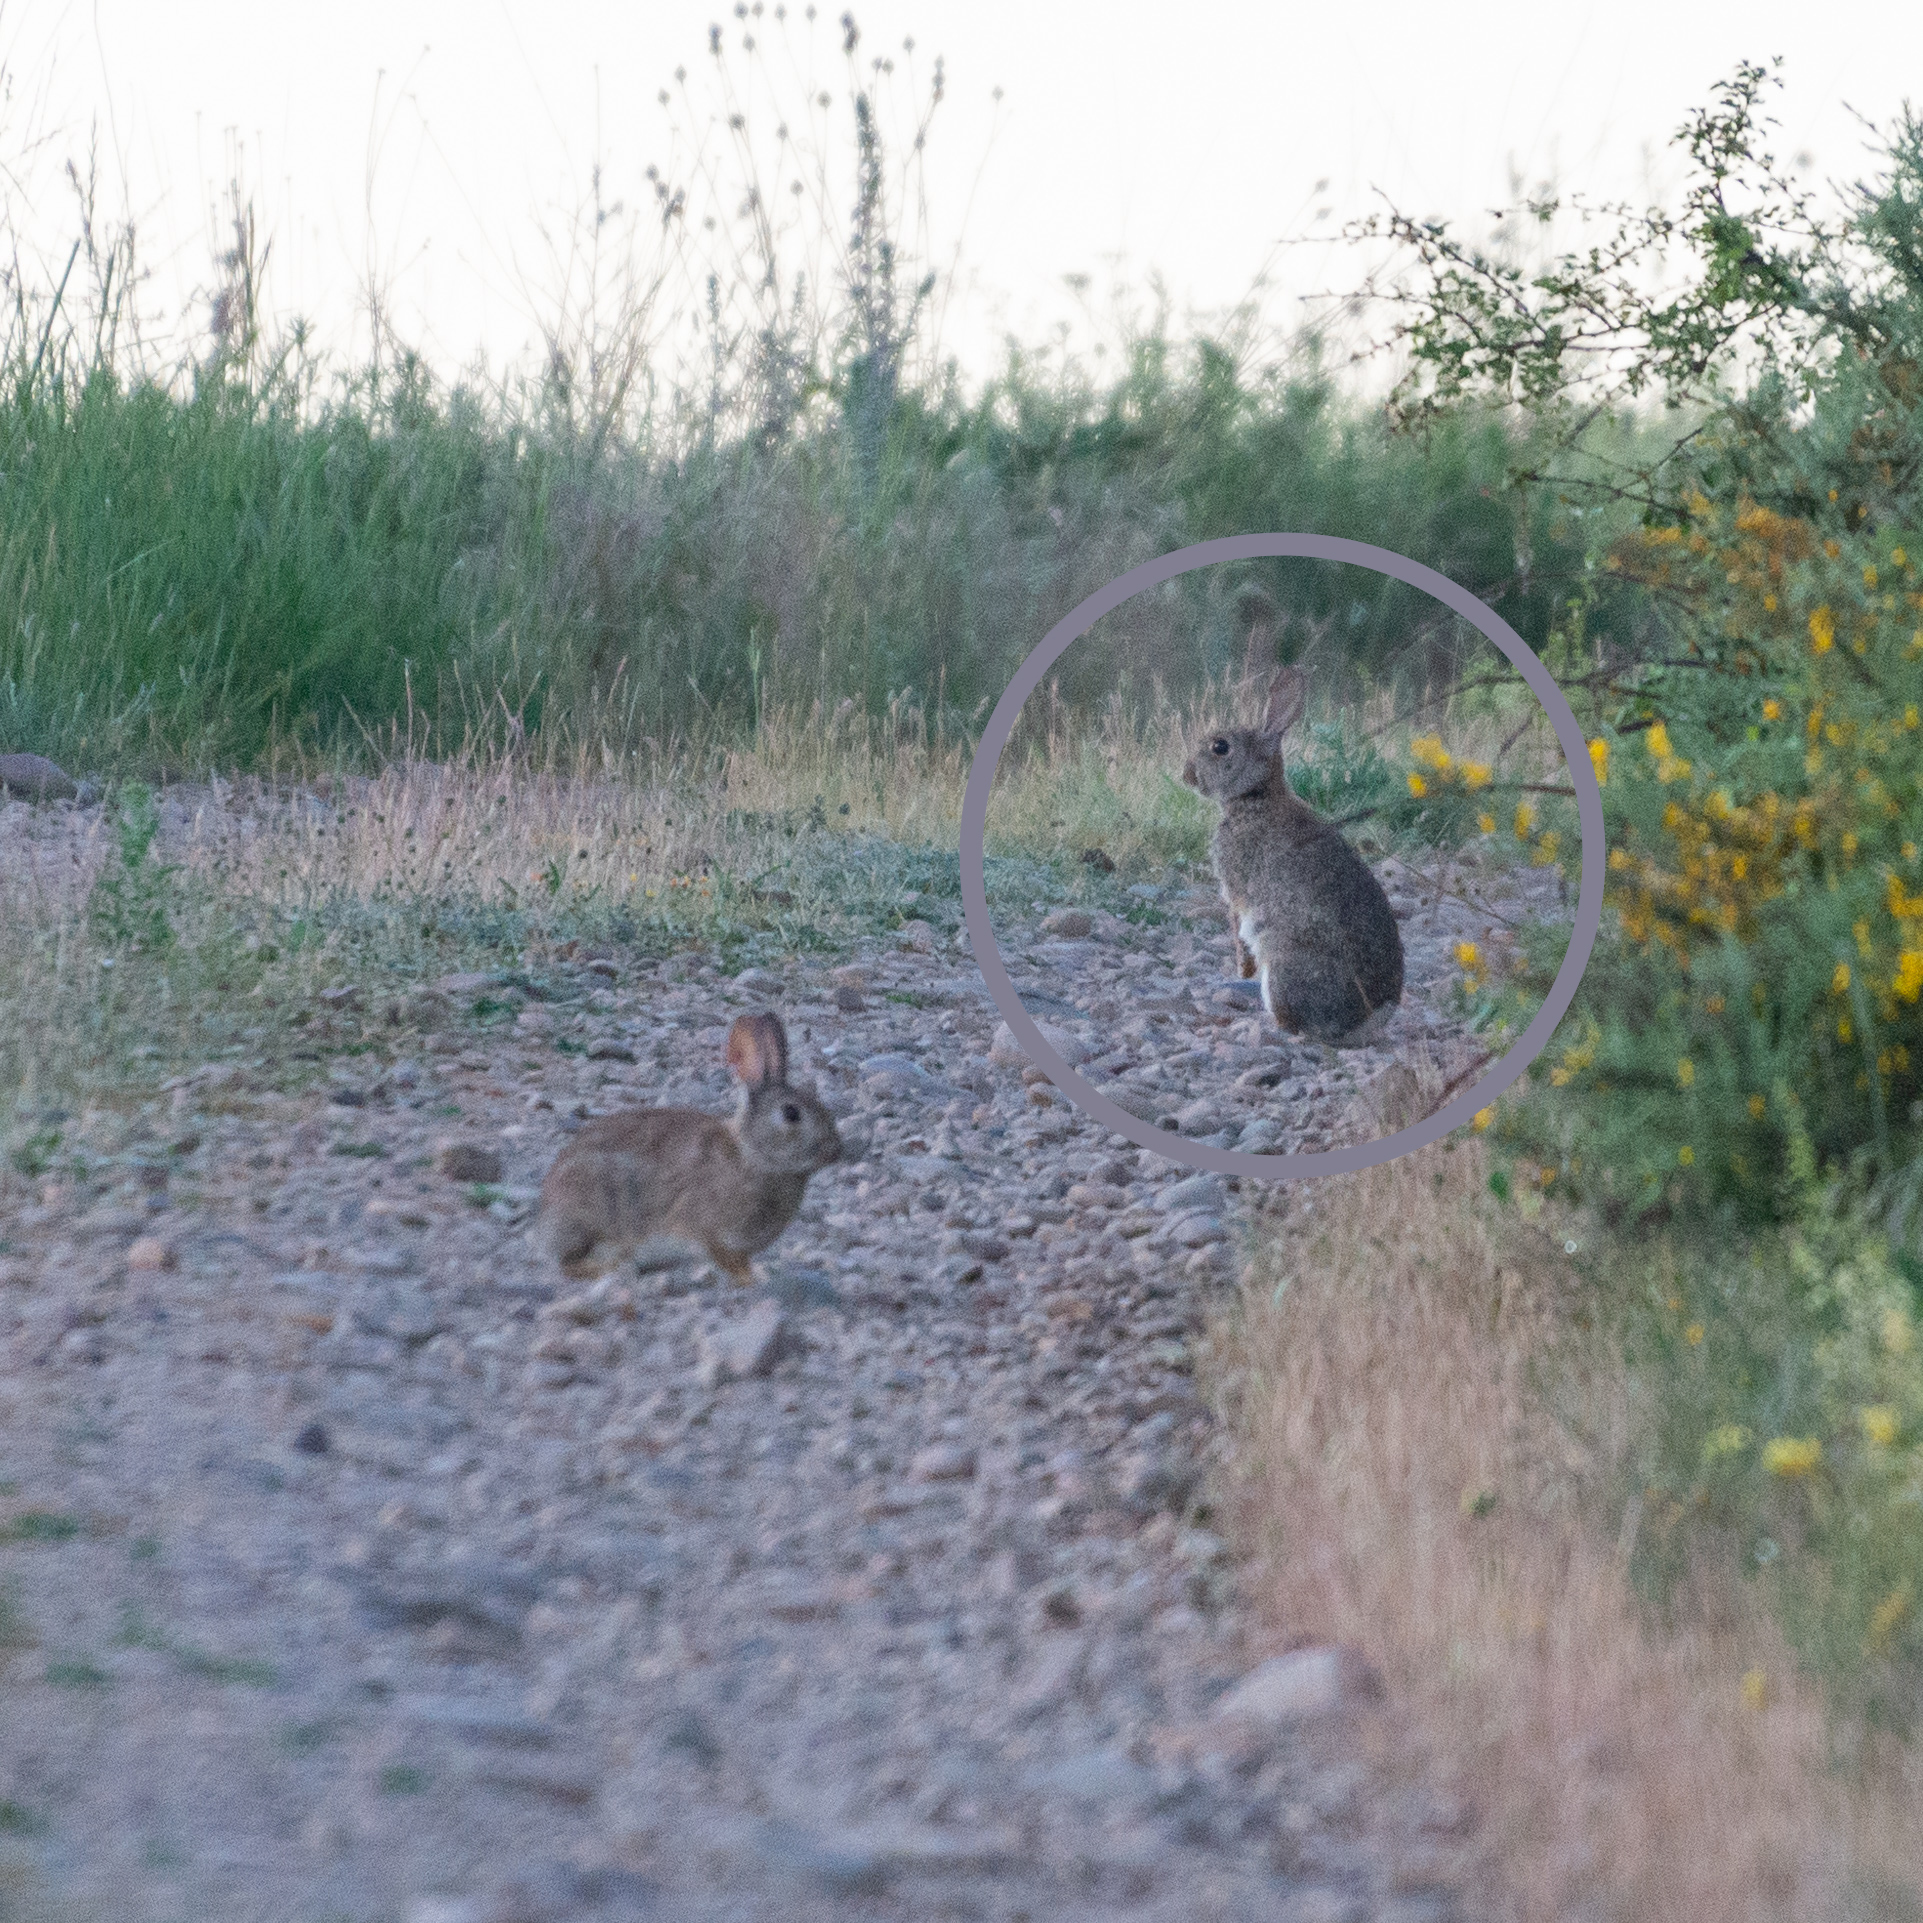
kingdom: Animalia
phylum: Chordata
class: Mammalia
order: Lagomorpha
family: Leporidae
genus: Oryctolagus
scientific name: Oryctolagus cuniculus
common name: European rabbit
